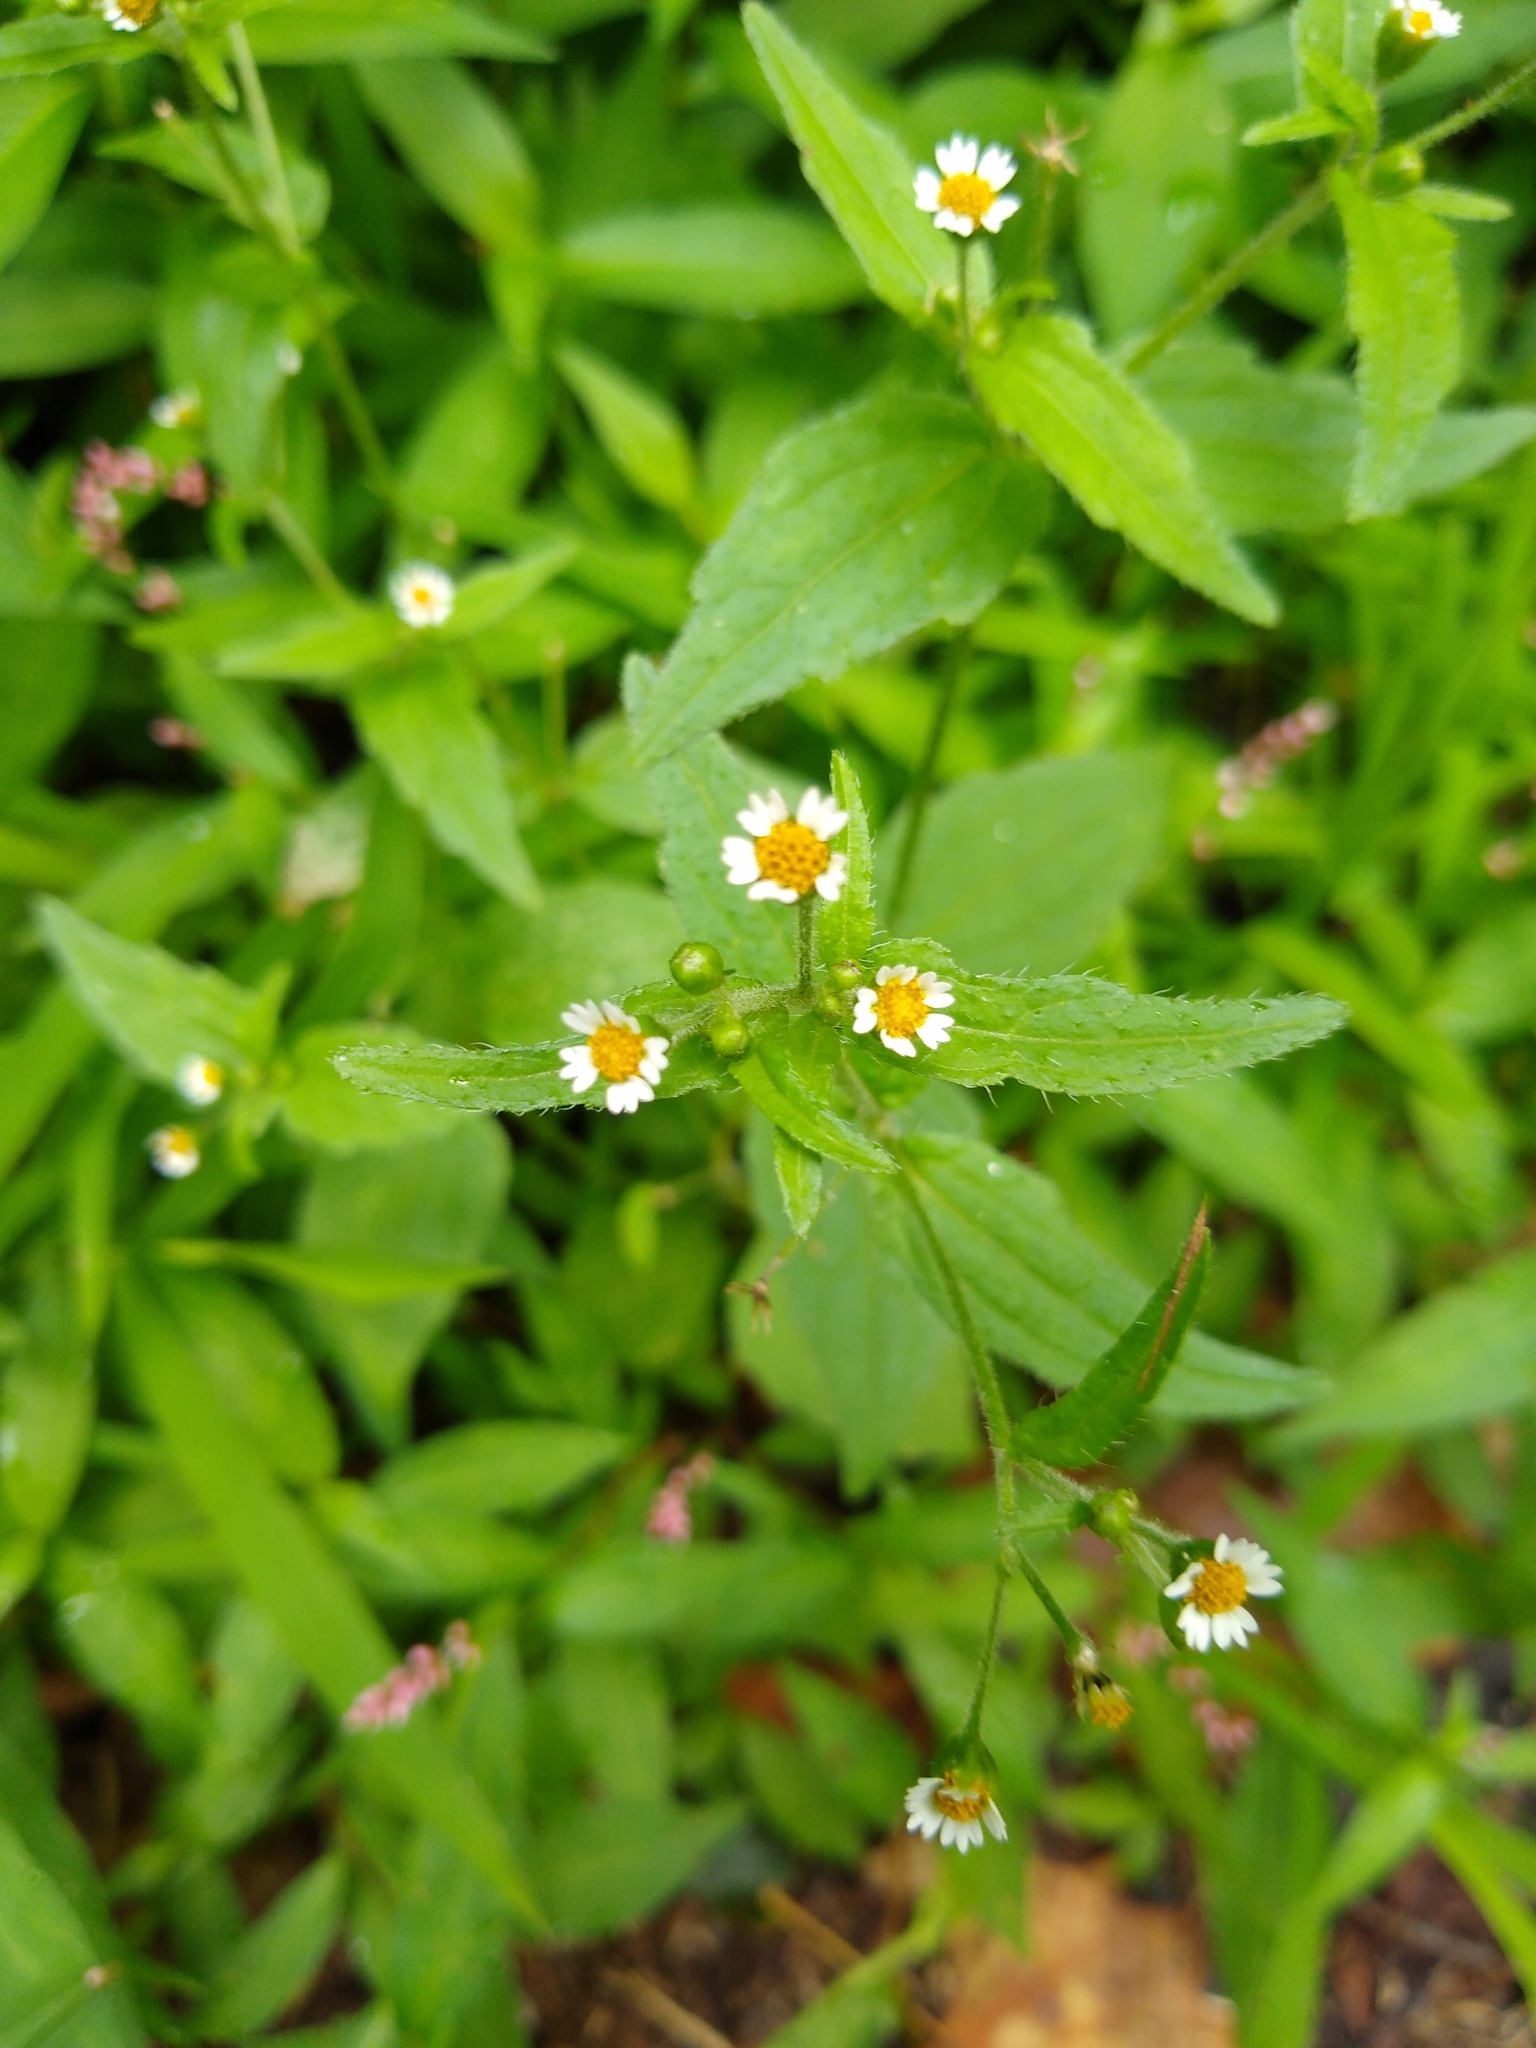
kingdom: Plantae
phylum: Tracheophyta
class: Magnoliopsida
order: Asterales
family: Asteraceae
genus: Galinsoga
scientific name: Galinsoga quadriradiata
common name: Shaggy soldier
